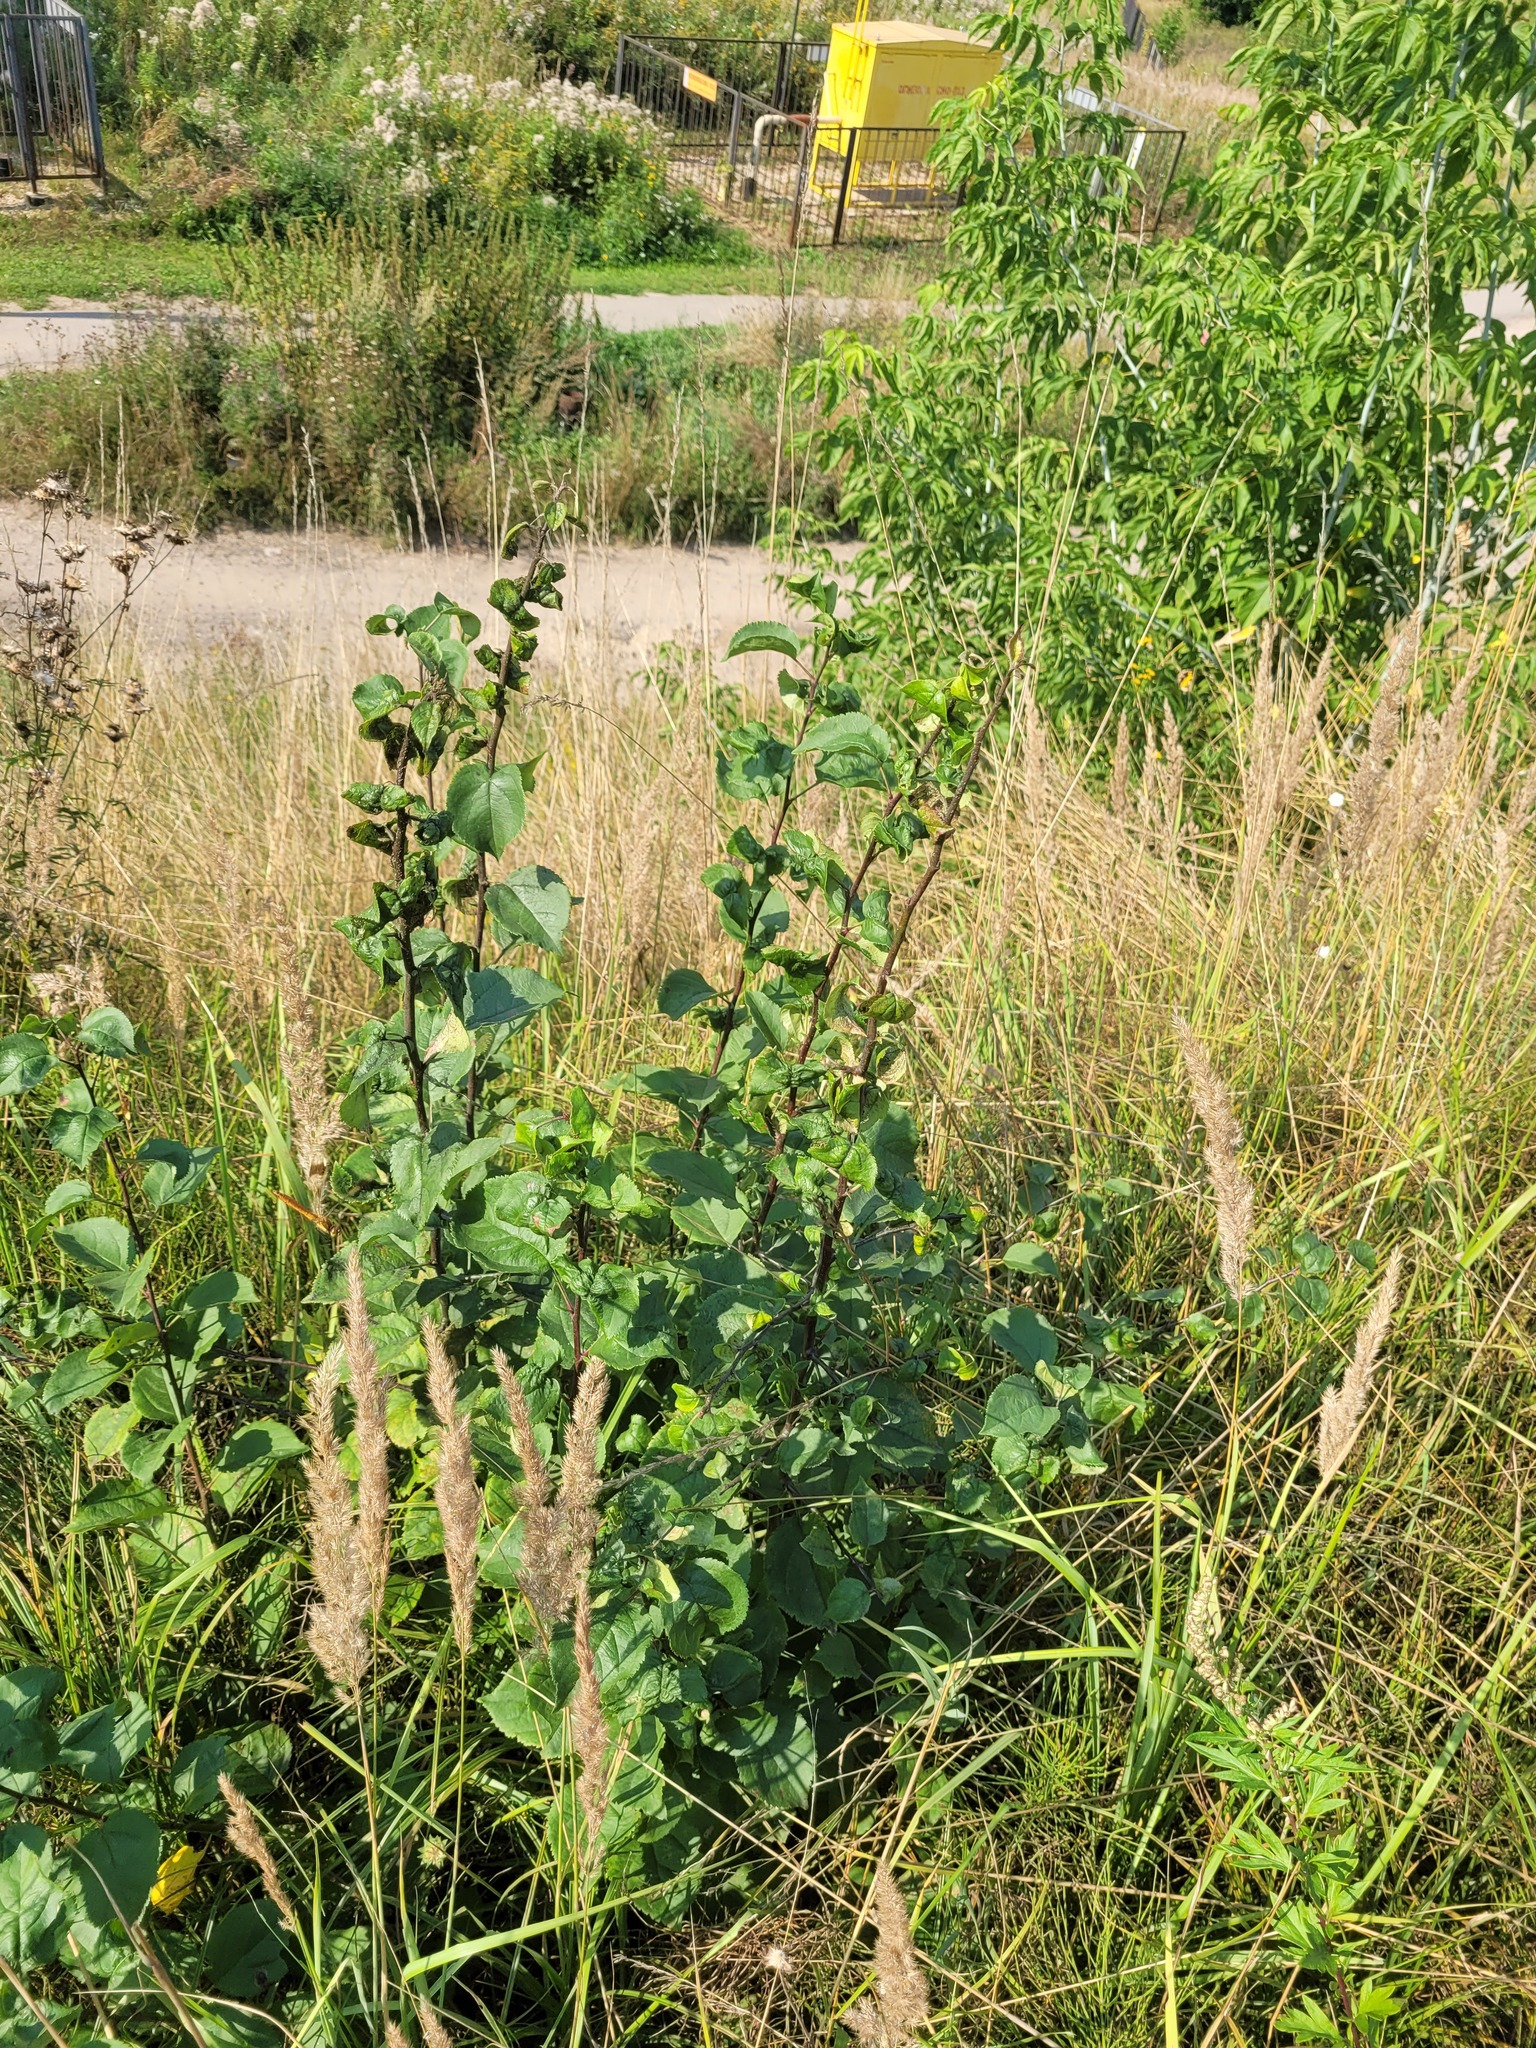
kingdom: Plantae
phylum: Tracheophyta
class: Magnoliopsida
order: Rosales
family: Rosaceae
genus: Malus
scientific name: Malus domestica
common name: Apple
